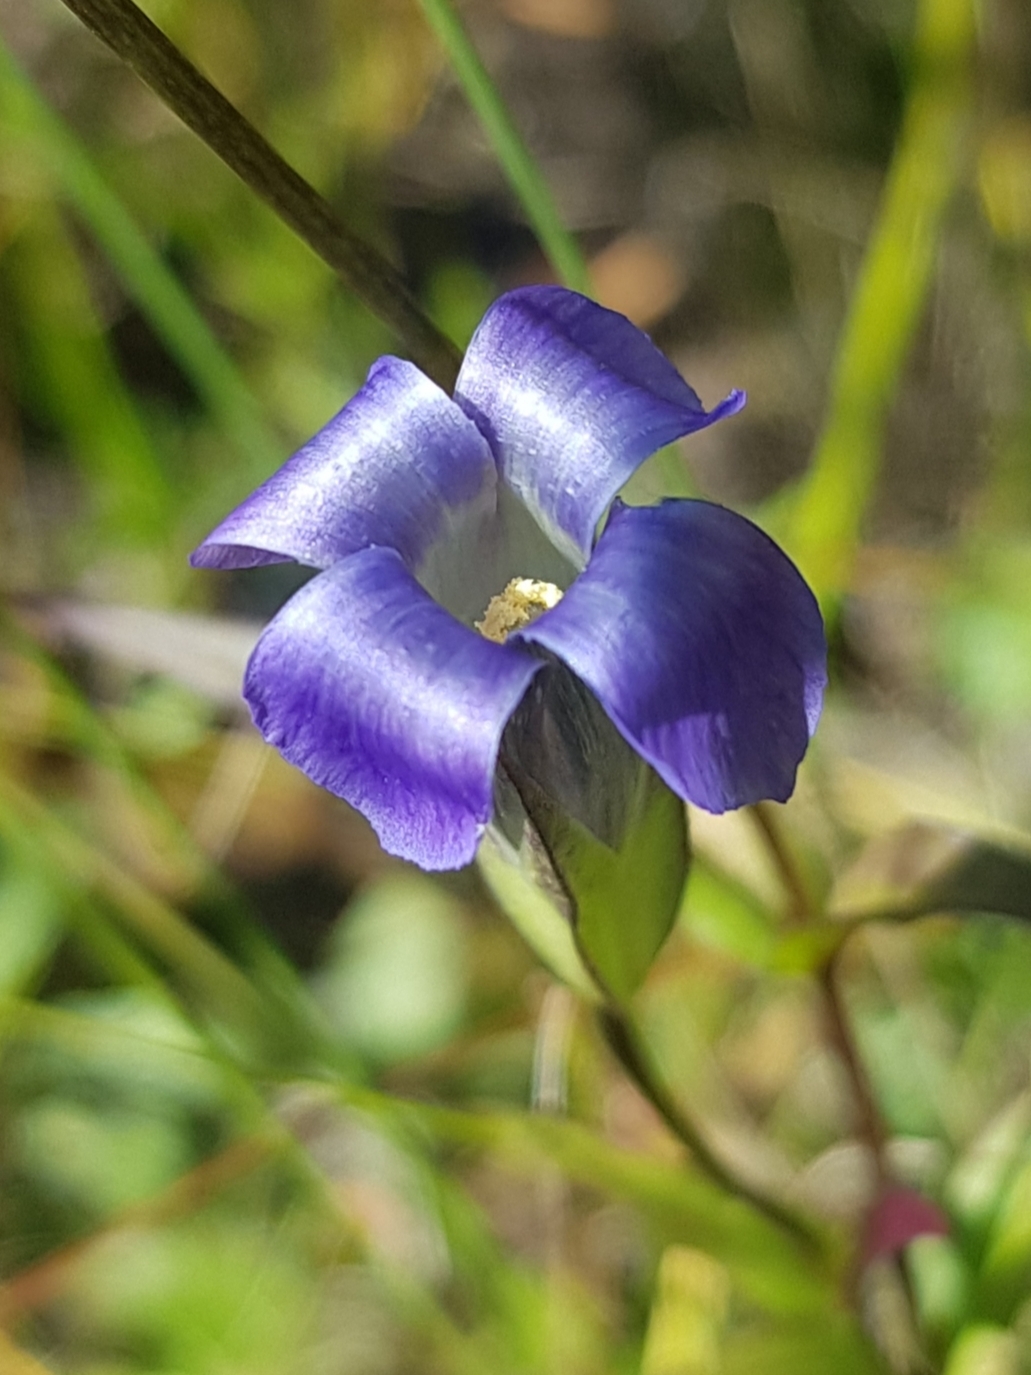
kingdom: Plantae
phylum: Tracheophyta
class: Magnoliopsida
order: Gentianales
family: Gentianaceae
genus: Gentianopsis
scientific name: Gentianopsis barbata
